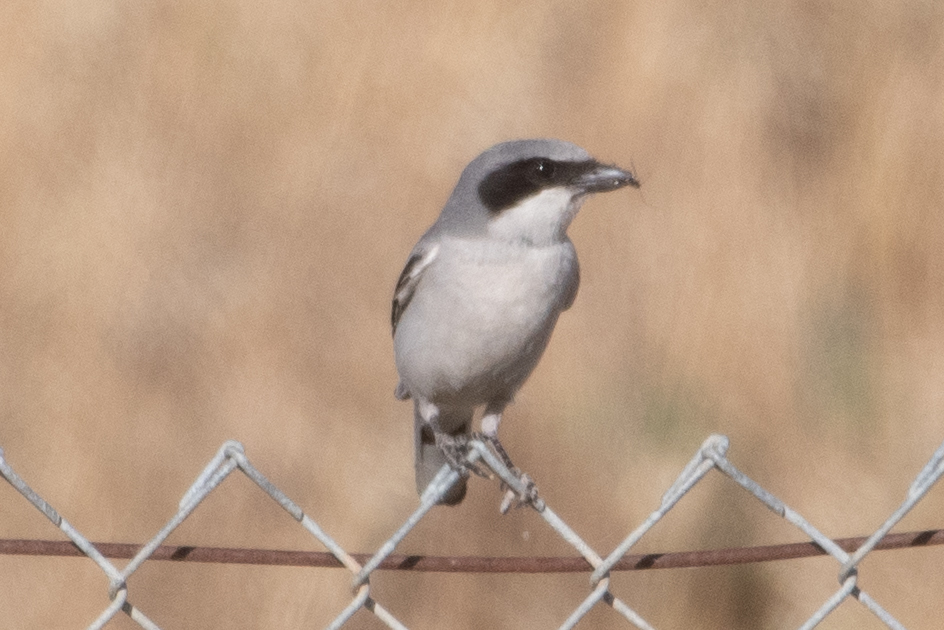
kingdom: Animalia
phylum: Chordata
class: Aves
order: Passeriformes
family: Laniidae
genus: Lanius
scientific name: Lanius ludovicianus
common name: Loggerhead shrike
